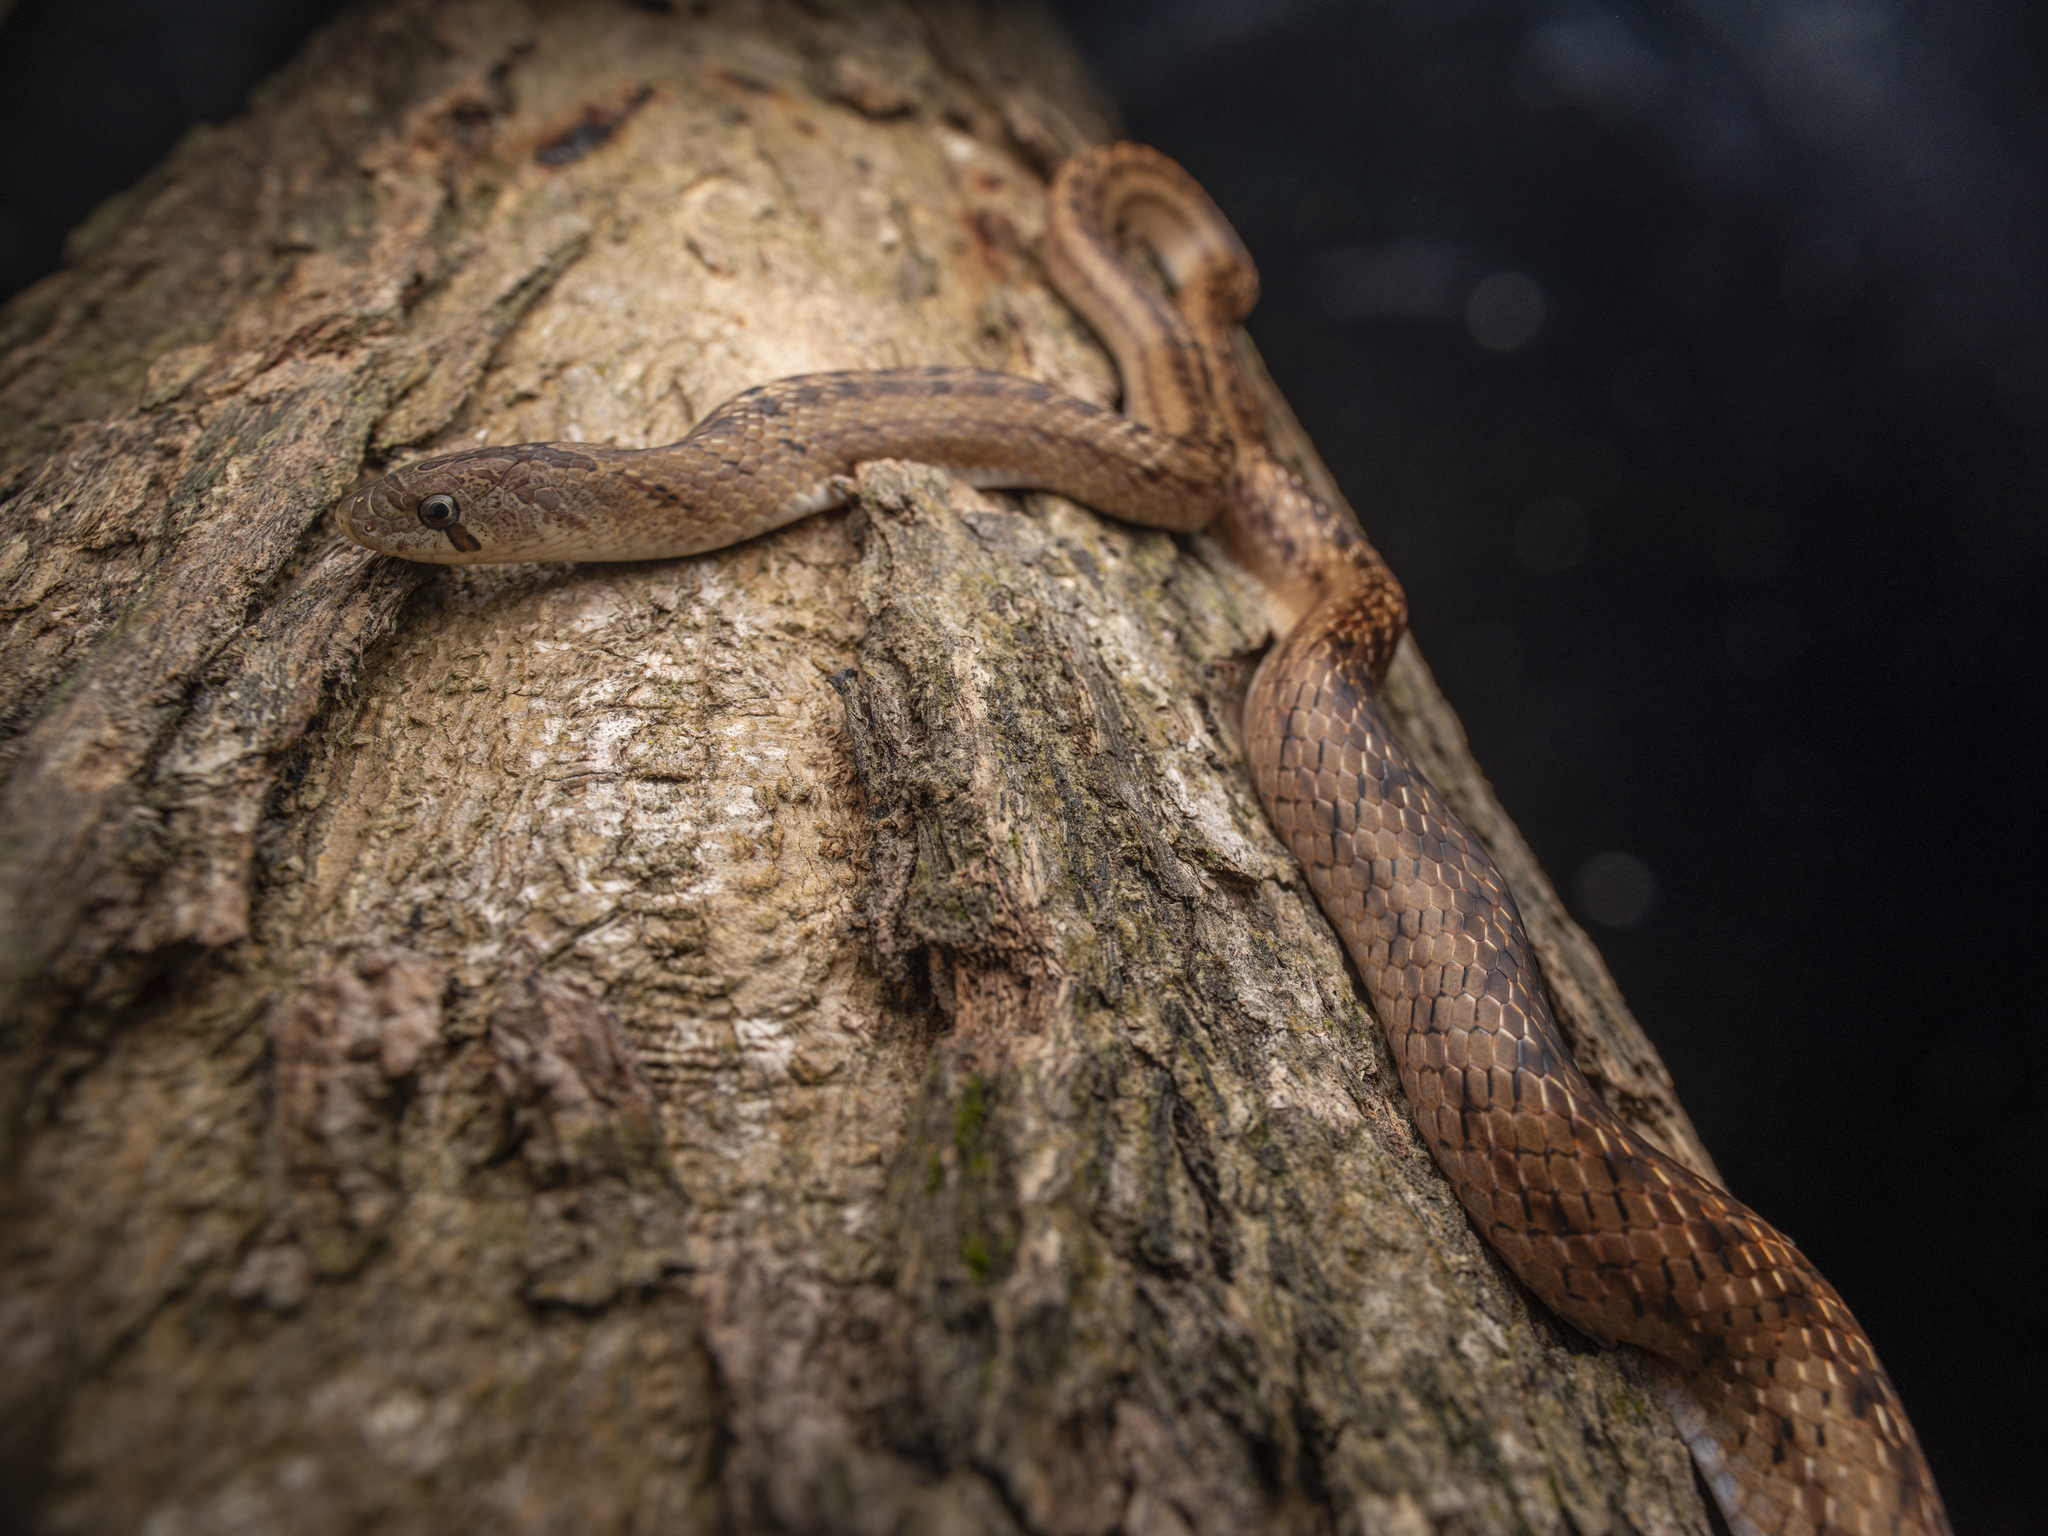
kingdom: Animalia
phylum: Chordata
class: Squamata
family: Colubridae
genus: Oligodon
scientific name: Oligodon formosanus
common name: Formosa kukri snake
